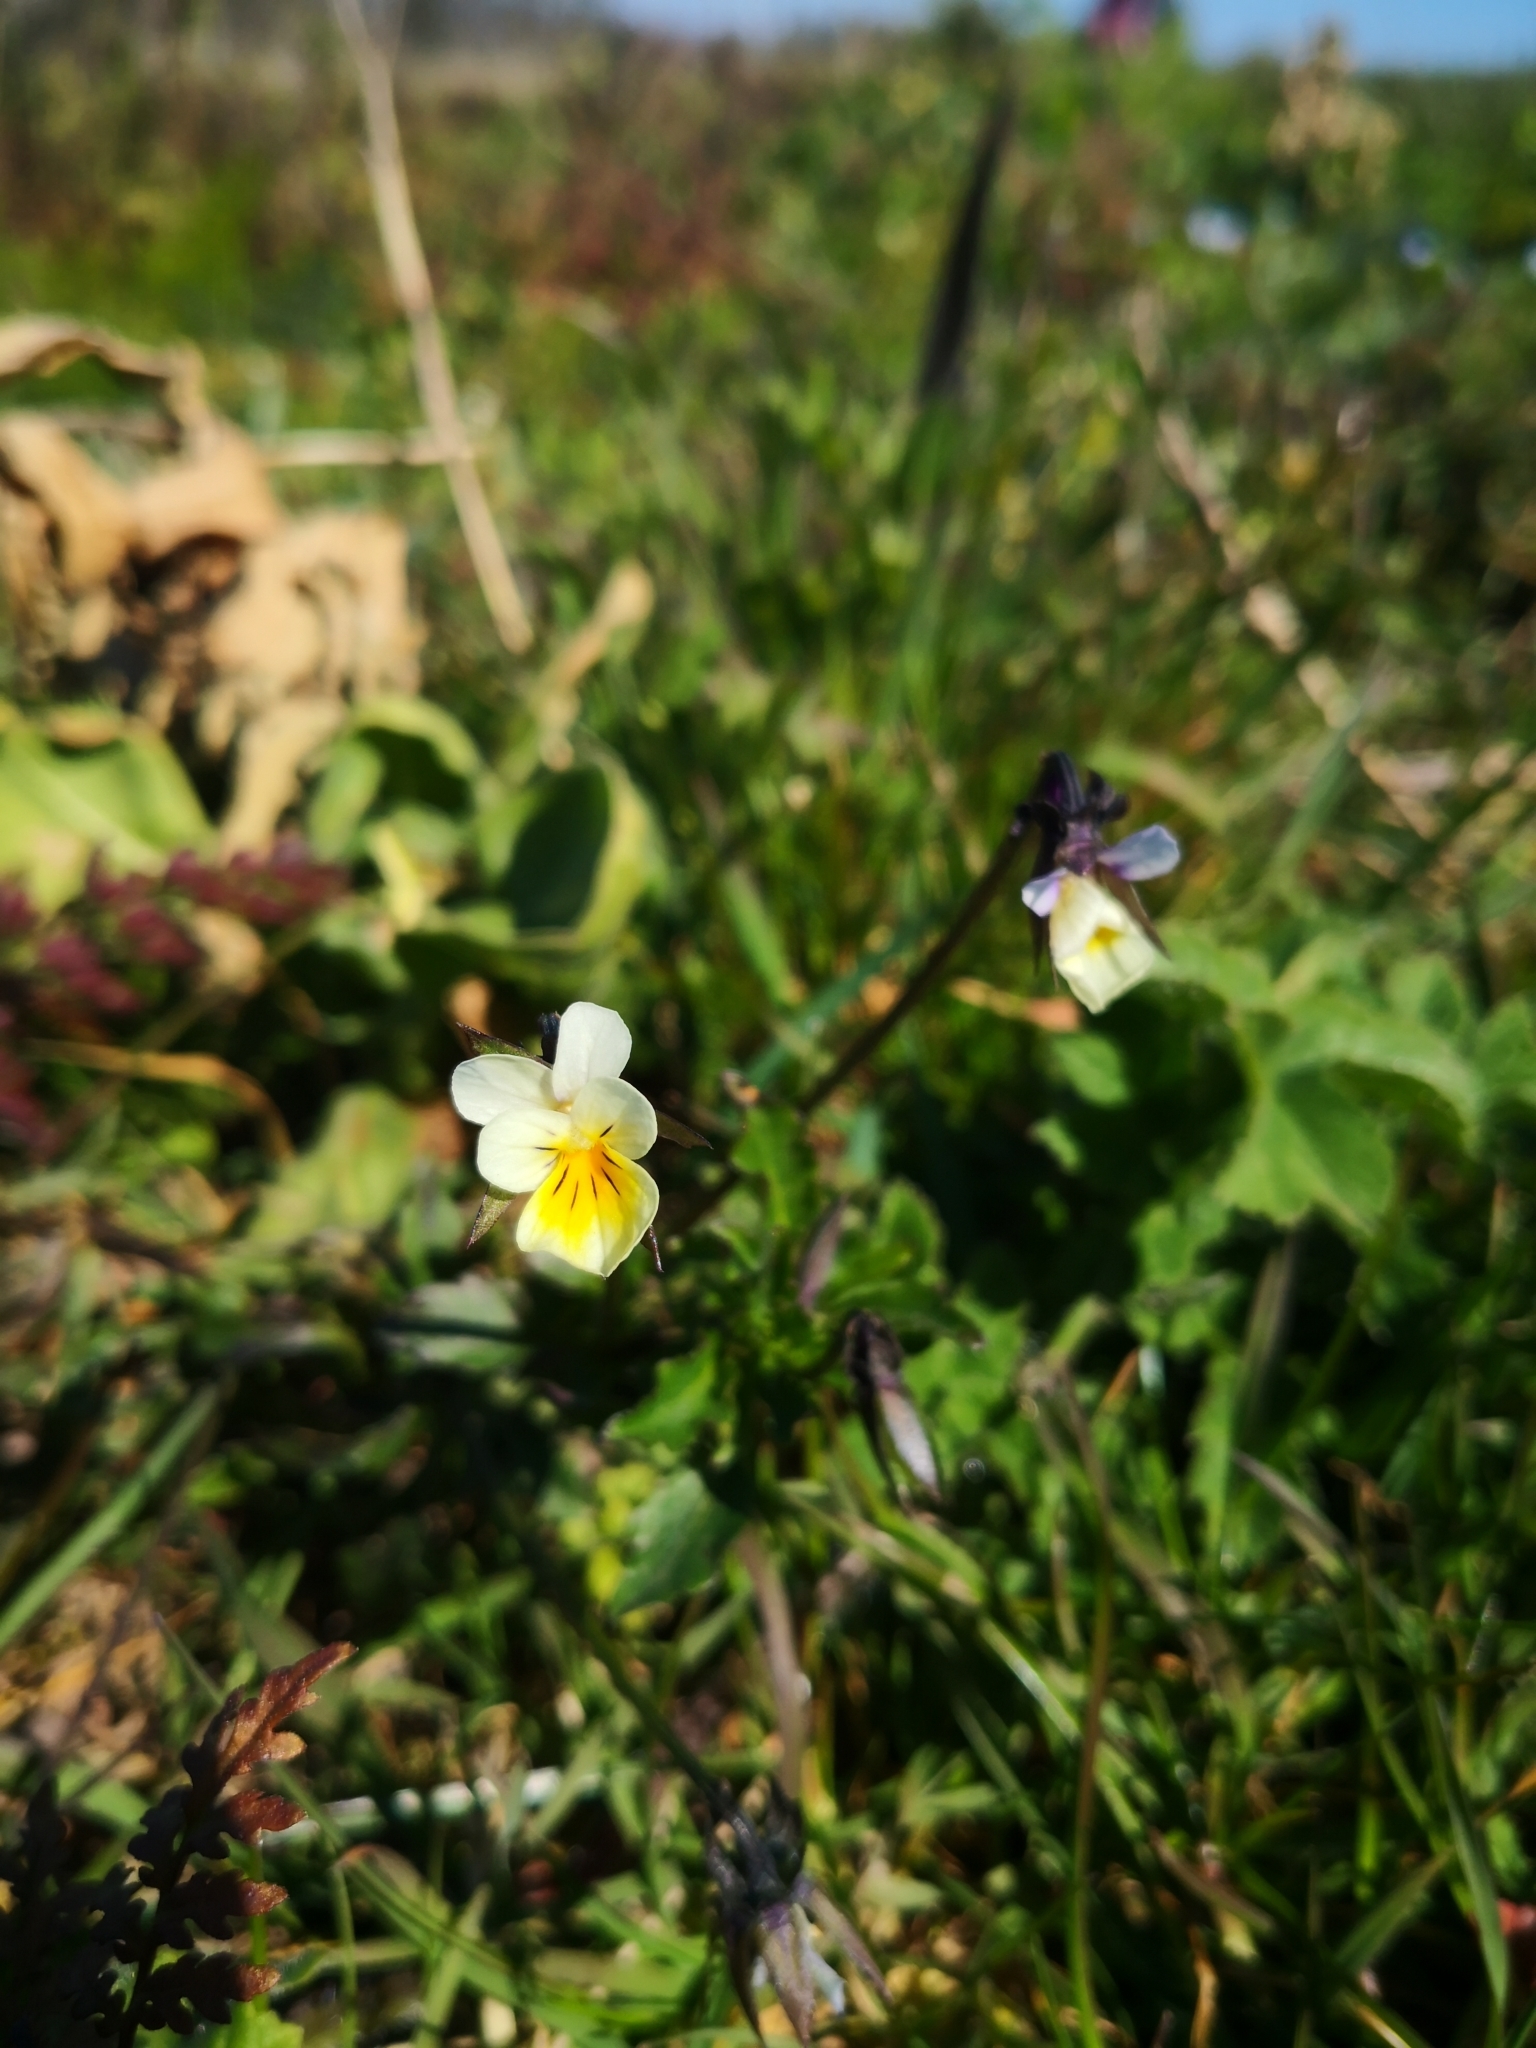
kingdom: Plantae
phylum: Tracheophyta
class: Magnoliopsida
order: Malpighiales
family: Violaceae
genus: Viola
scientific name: Viola arvensis
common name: Field pansy
